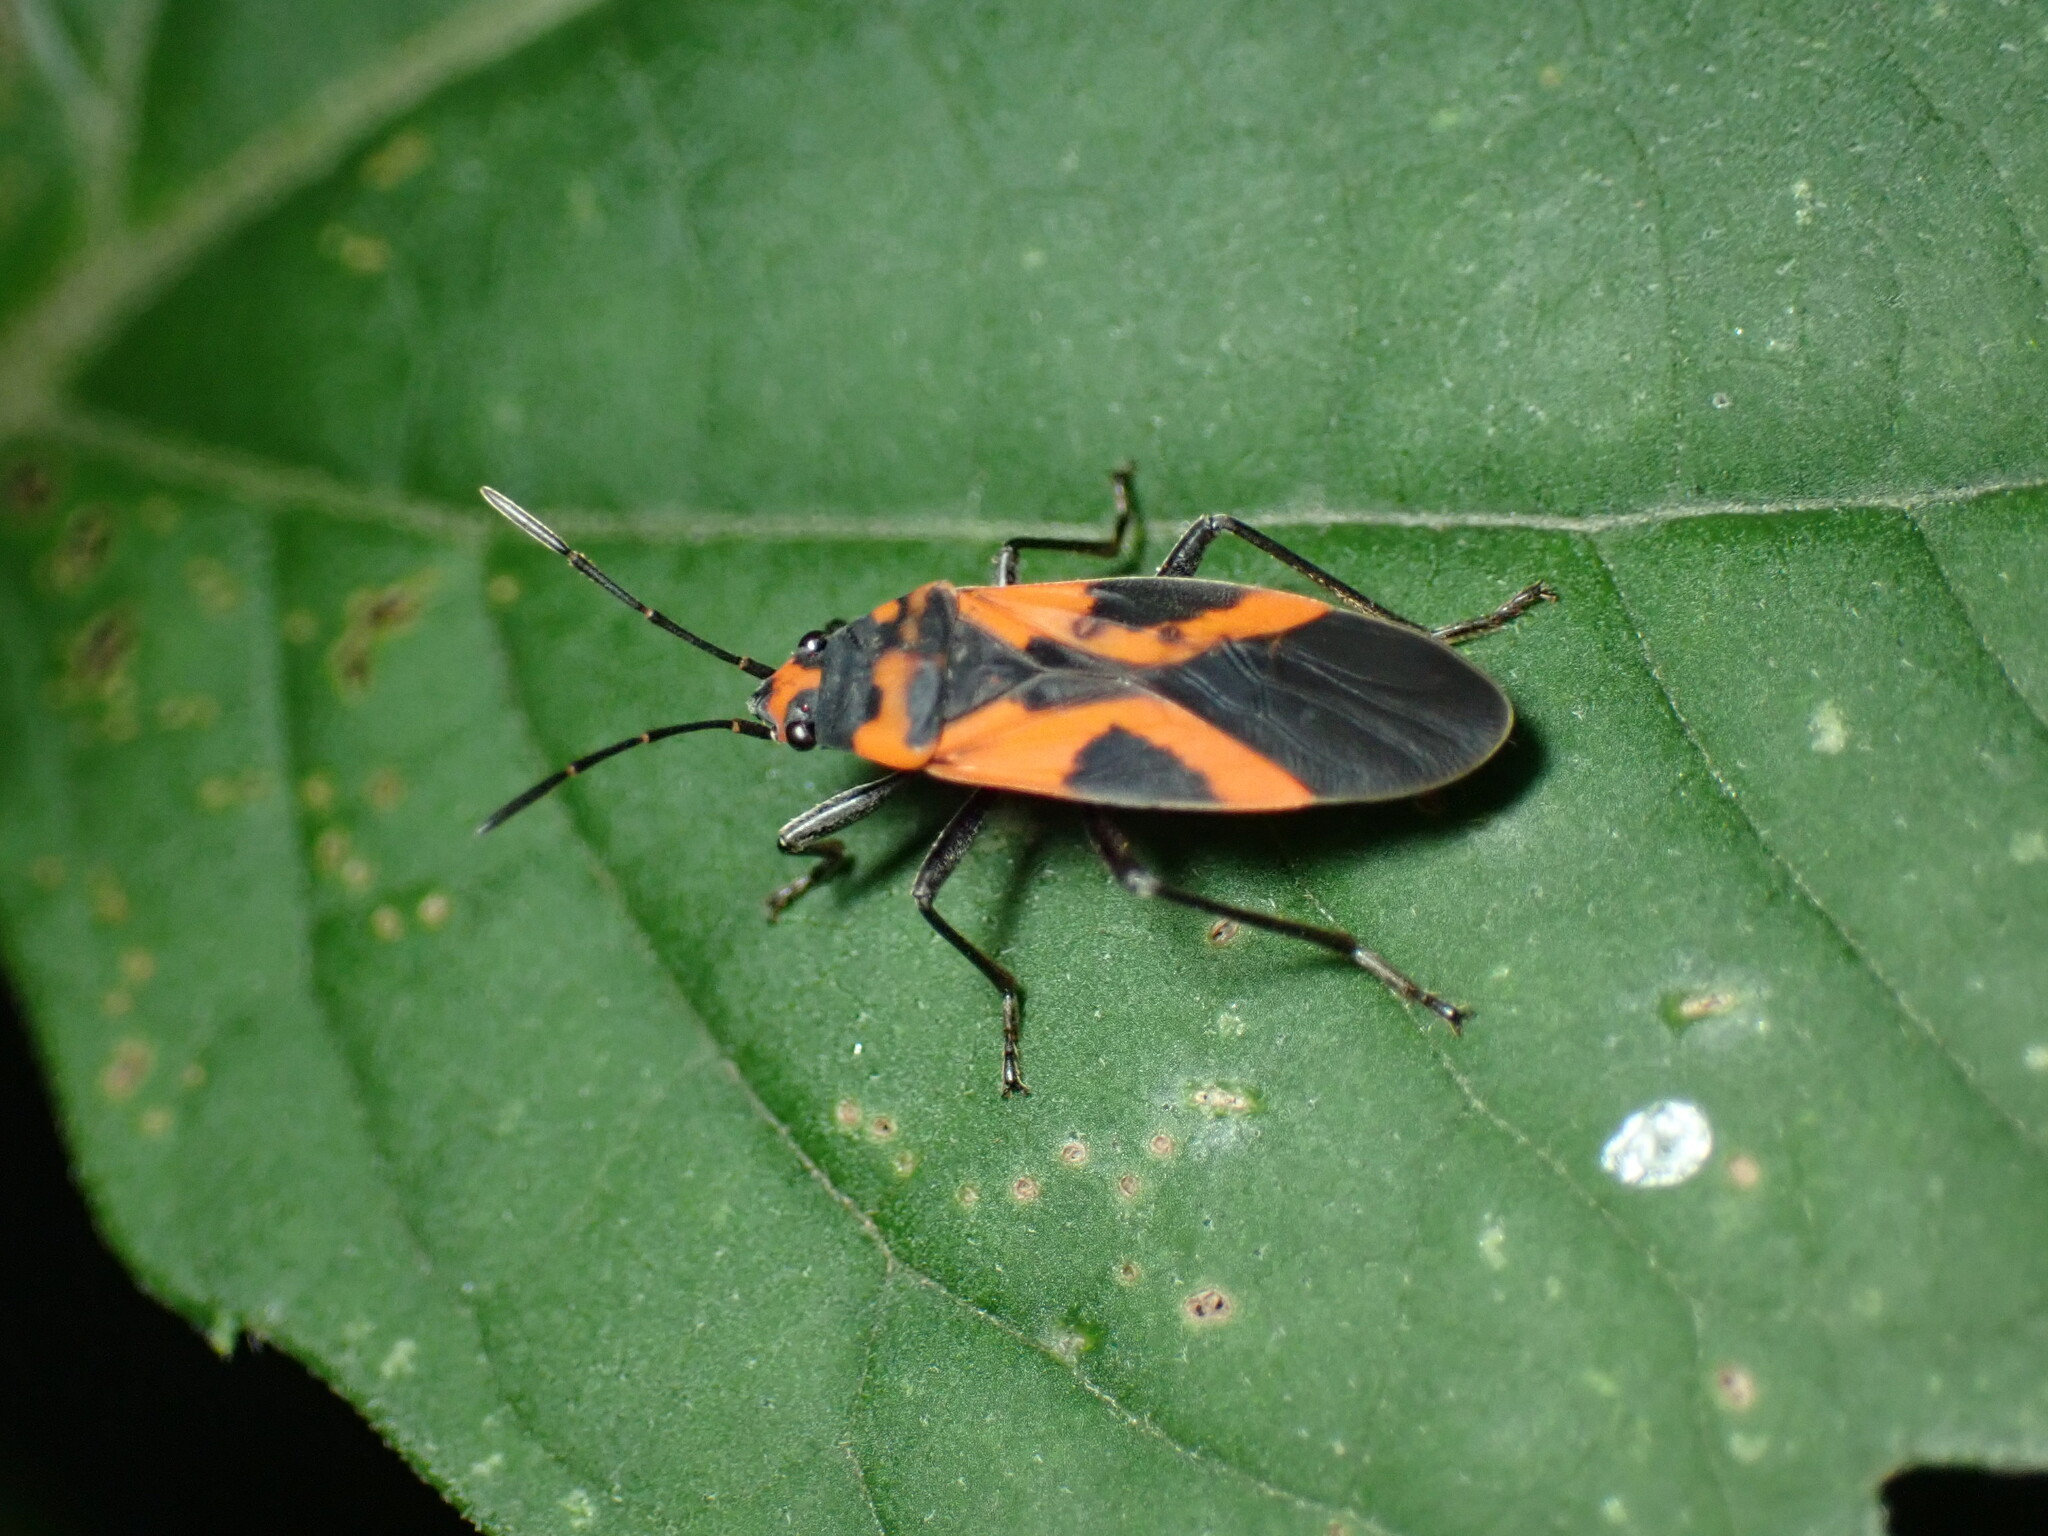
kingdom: Animalia
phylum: Arthropoda
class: Insecta
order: Hemiptera
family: Lygaeidae
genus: Lygaeus
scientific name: Lygaeus turcicus
